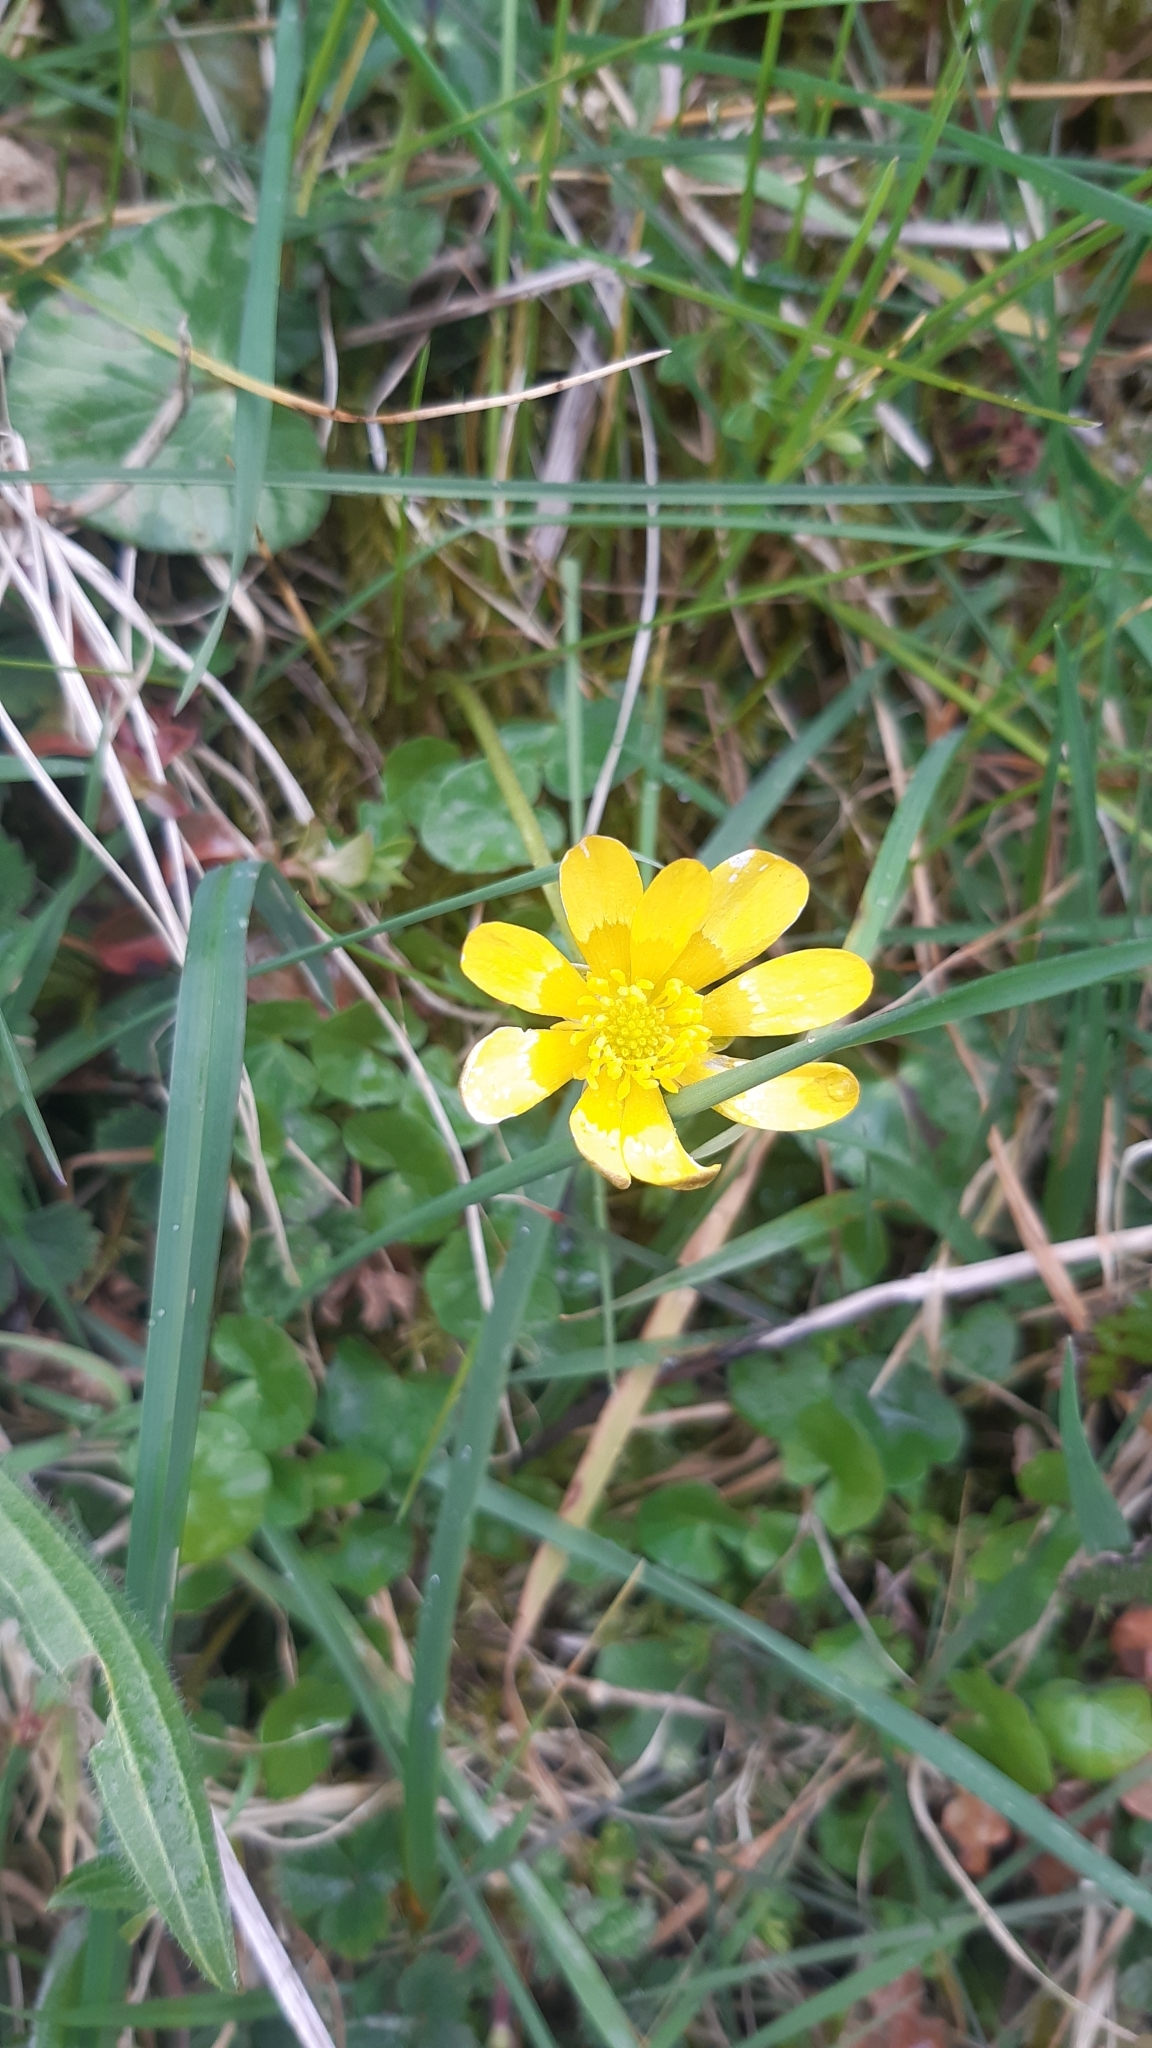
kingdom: Plantae
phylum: Tracheophyta
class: Magnoliopsida
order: Ranunculales
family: Ranunculaceae
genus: Ficaria
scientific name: Ficaria verna
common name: Lesser celandine
